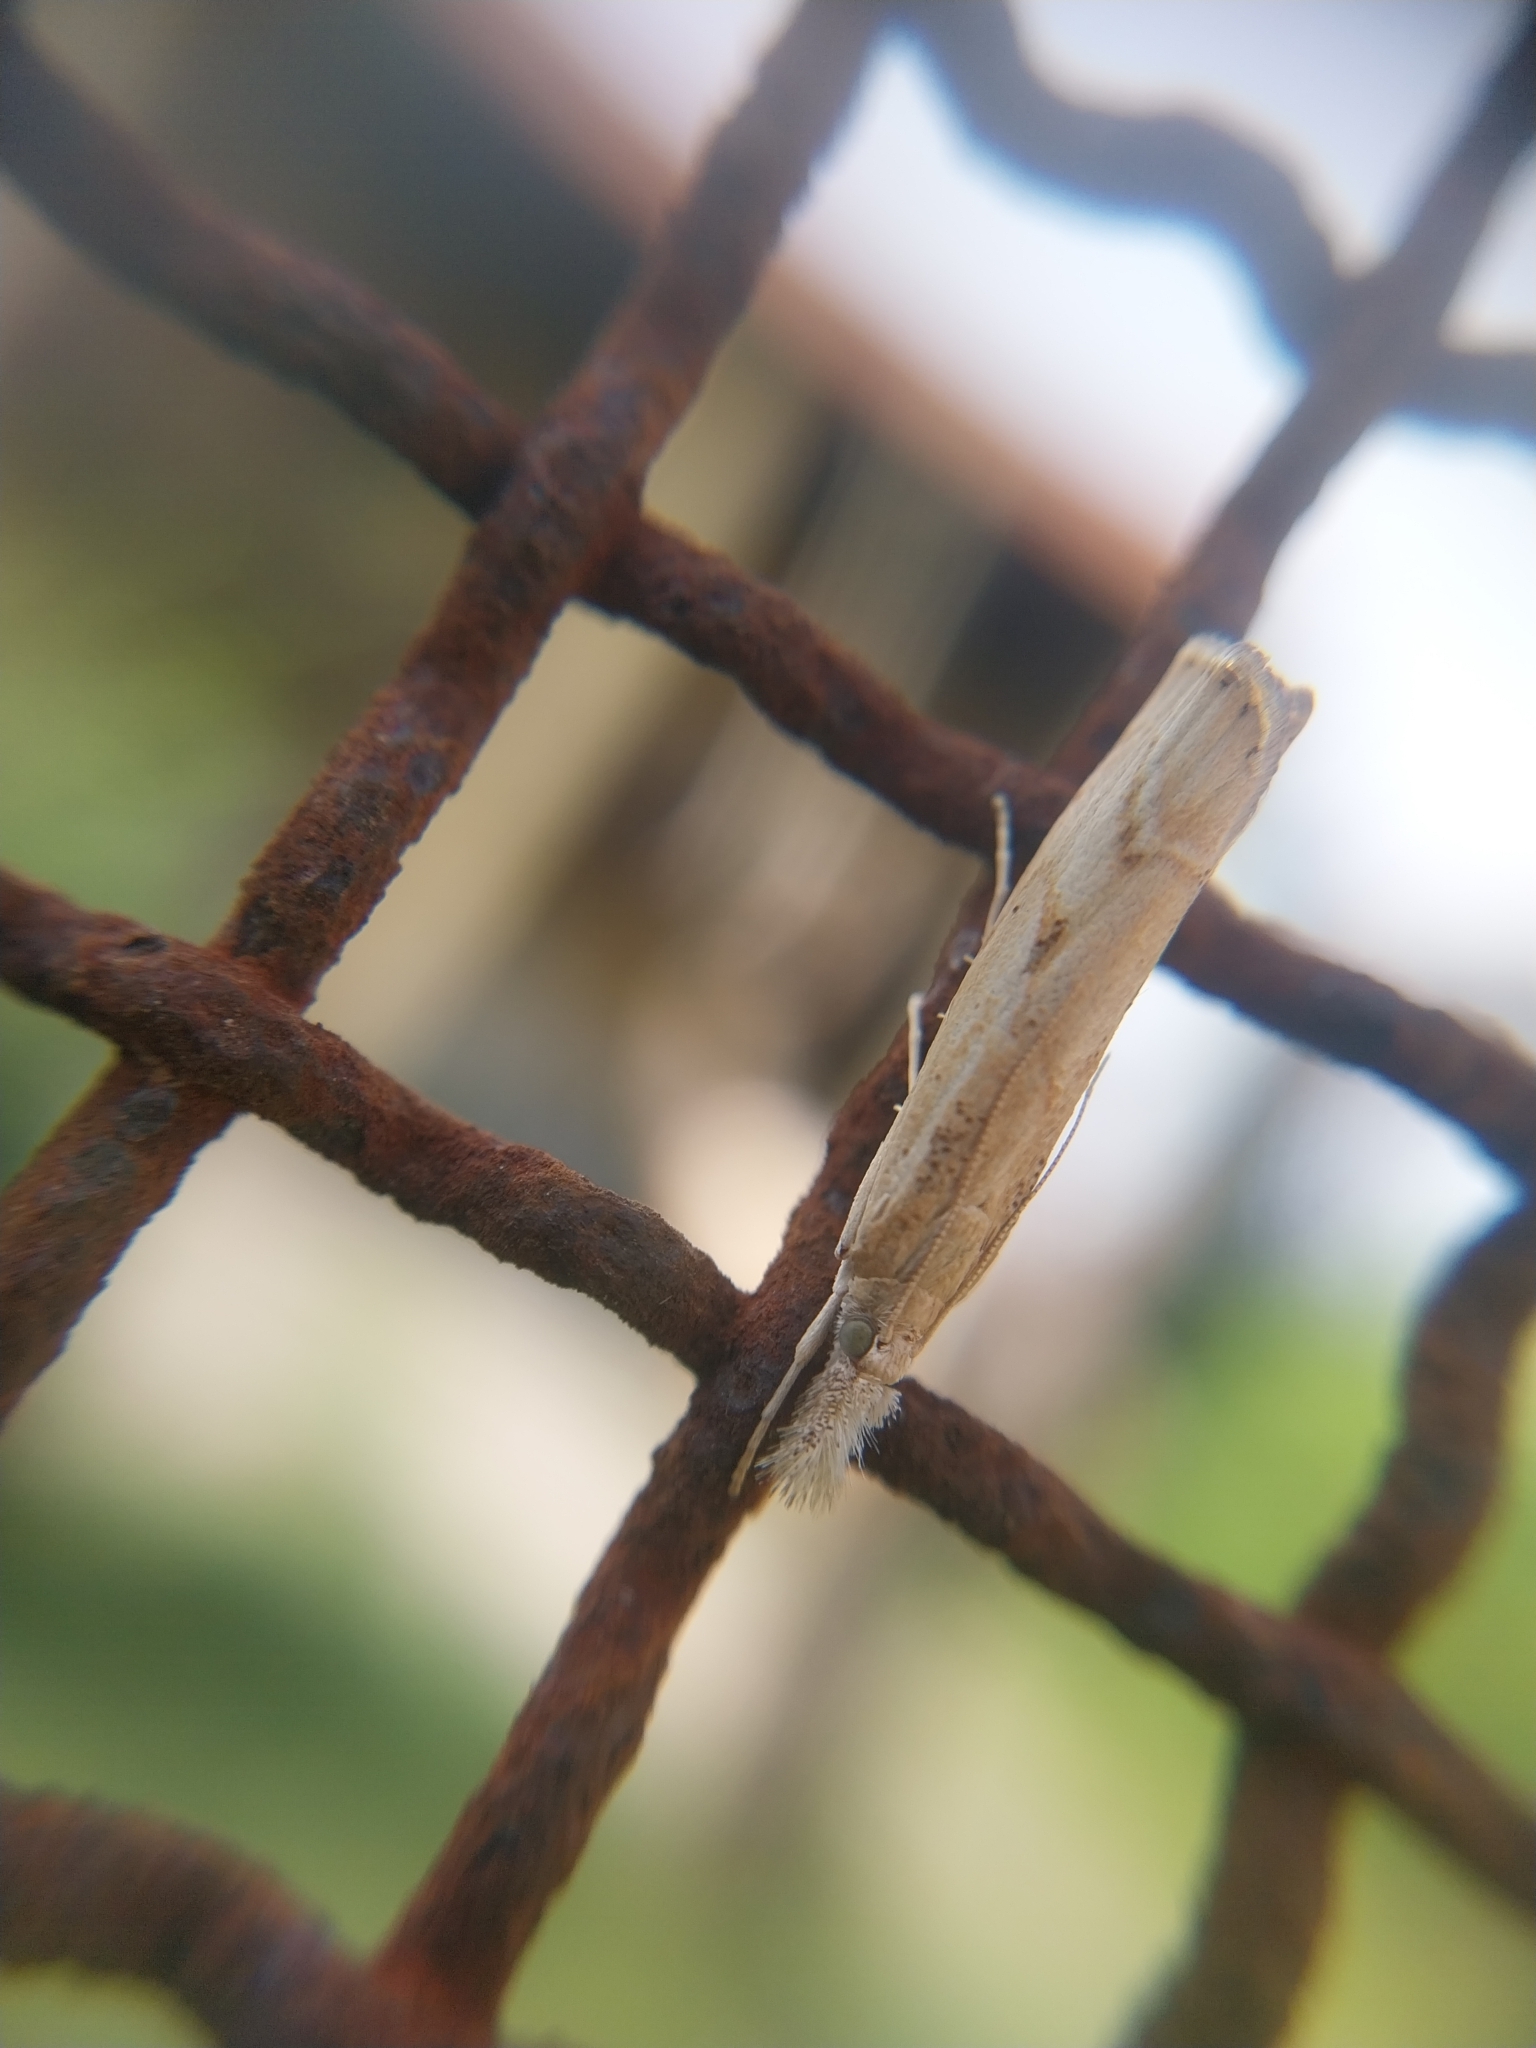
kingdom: Animalia
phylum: Arthropoda
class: Insecta
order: Lepidoptera
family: Crambidae
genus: Agriphila
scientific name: Agriphila inquinatella
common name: Barred grass-veneer
